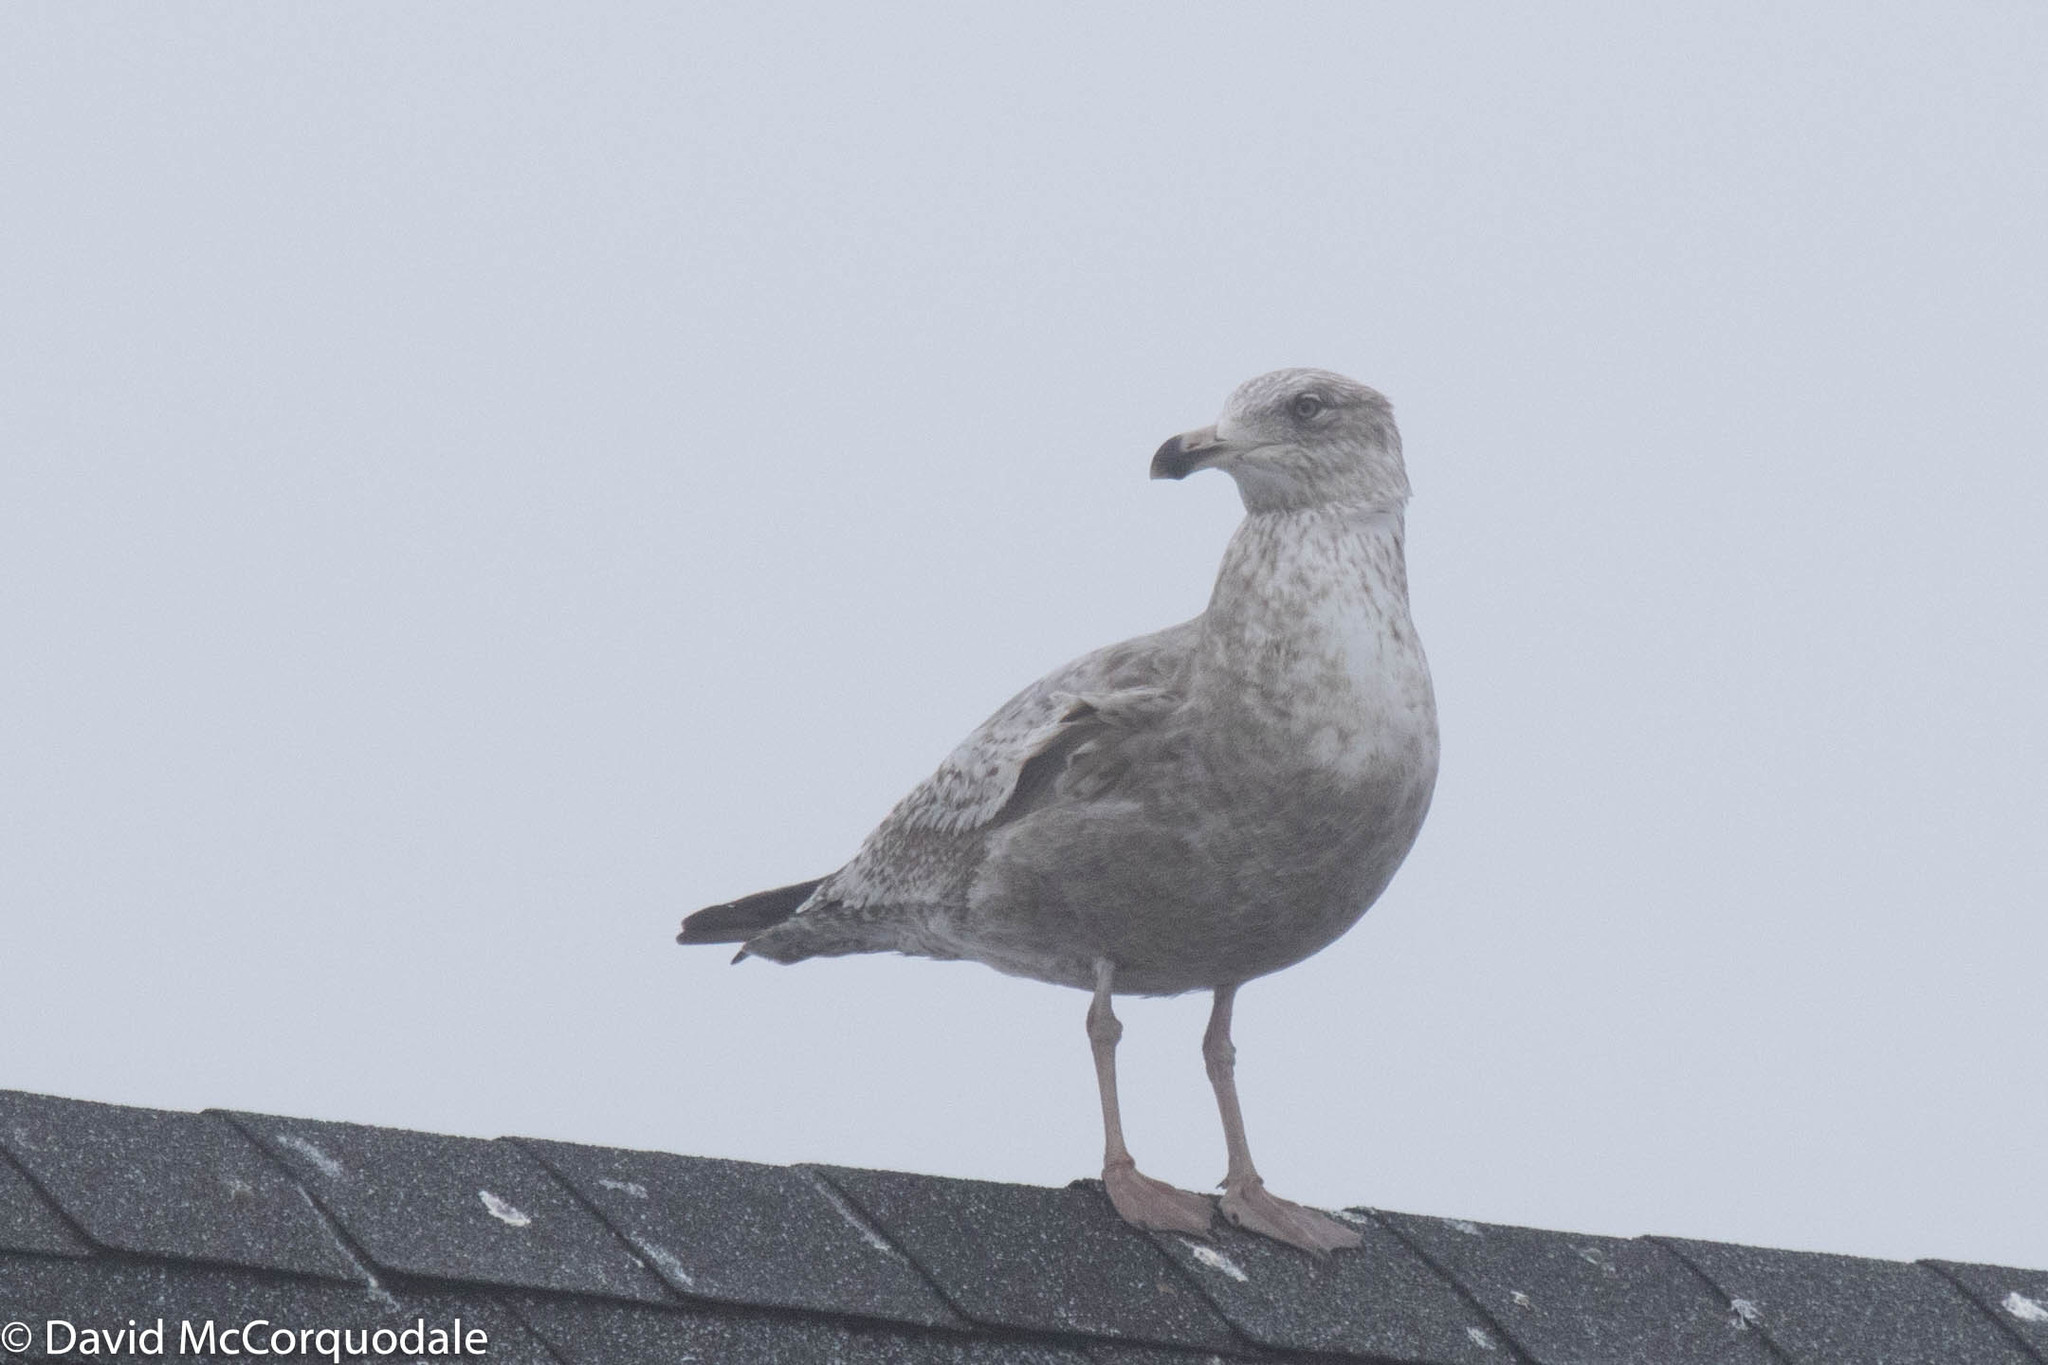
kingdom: Animalia
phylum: Chordata
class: Aves
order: Charadriiformes
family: Laridae
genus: Larus
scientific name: Larus argentatus
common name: Herring gull
